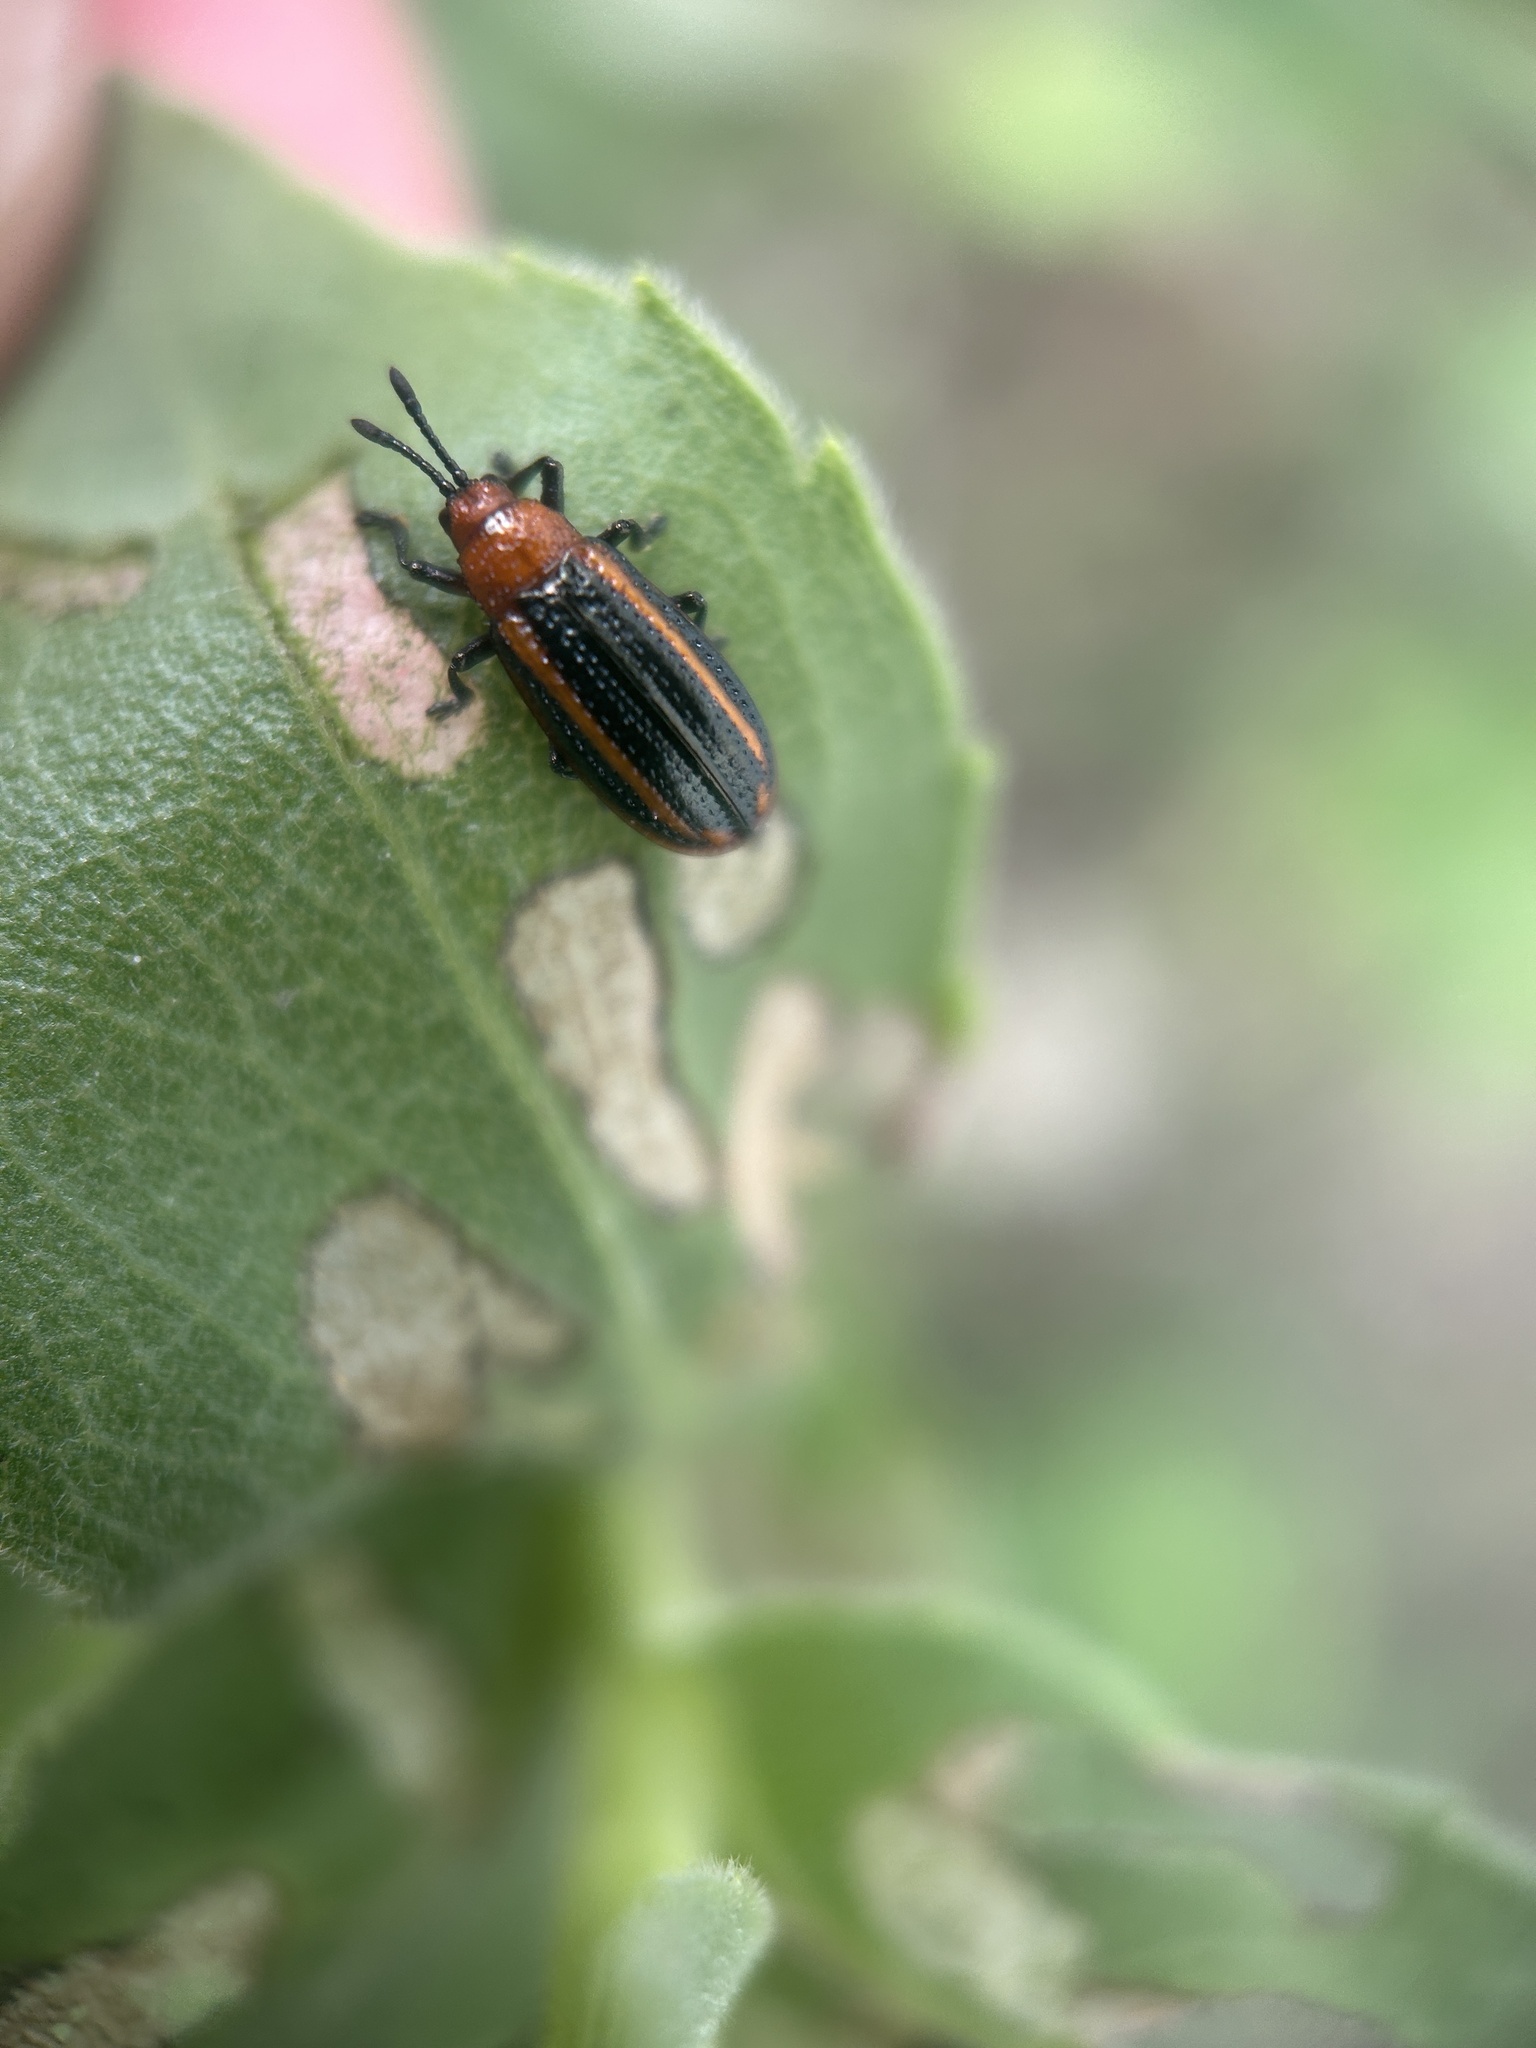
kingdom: Animalia
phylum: Arthropoda
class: Insecta
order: Coleoptera
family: Chrysomelidae
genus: Microrhopala
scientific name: Microrhopala vittata
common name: Goldenrod leaf miner beetle
